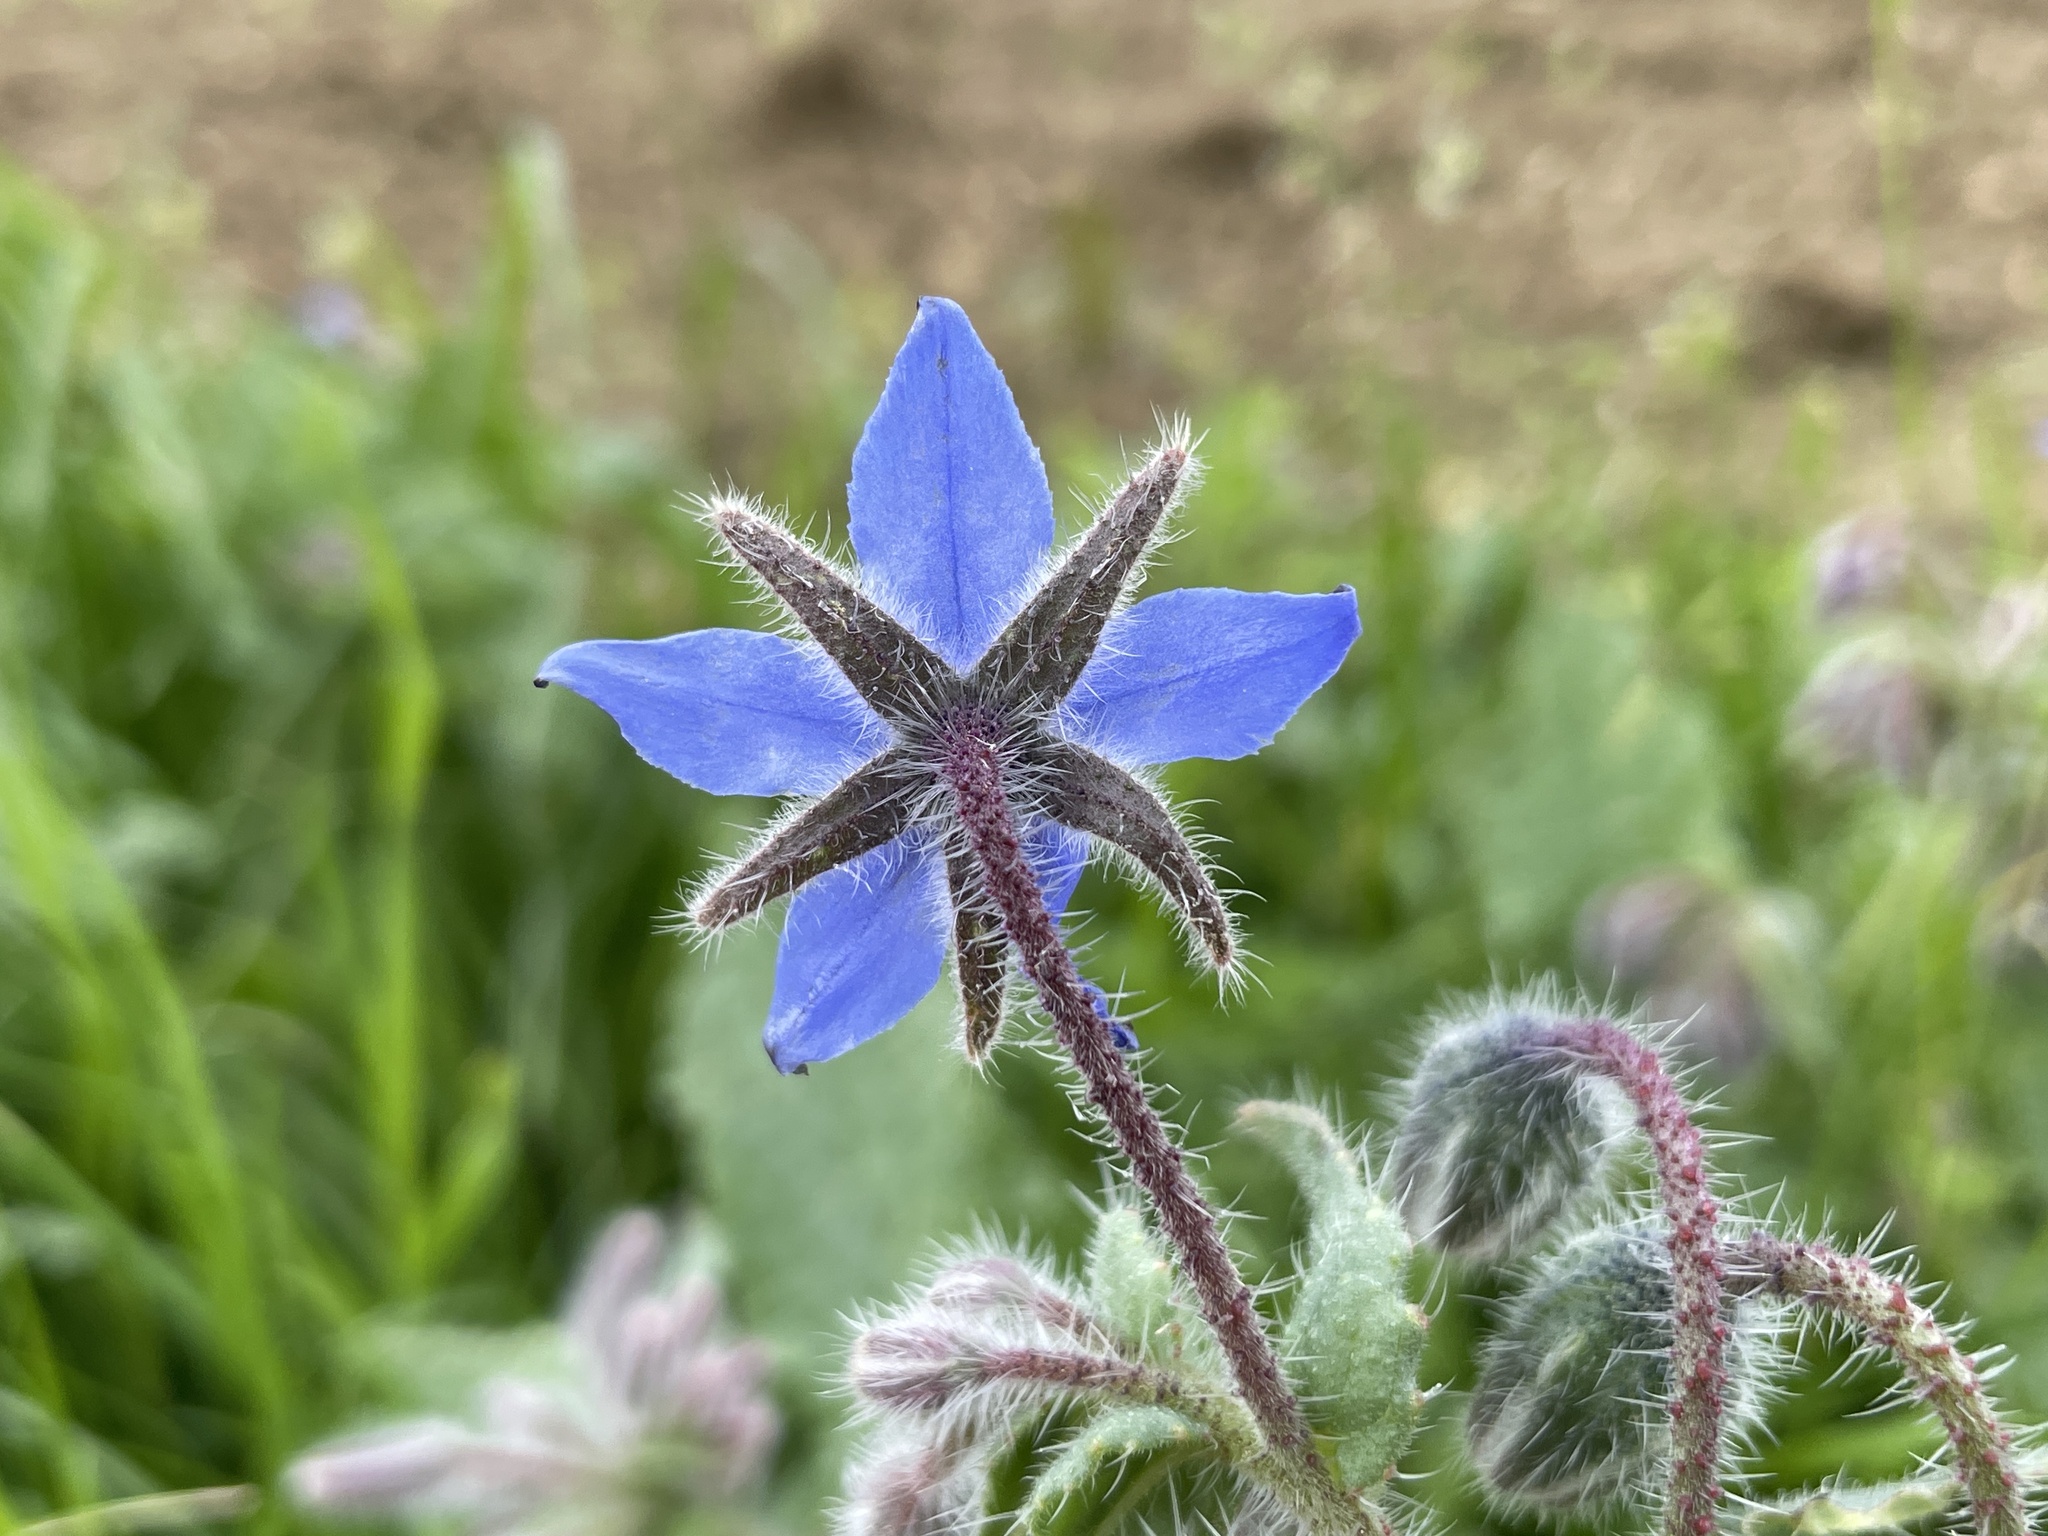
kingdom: Plantae
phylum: Tracheophyta
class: Magnoliopsida
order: Boraginales
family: Boraginaceae
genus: Borago
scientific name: Borago officinalis
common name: Borage
